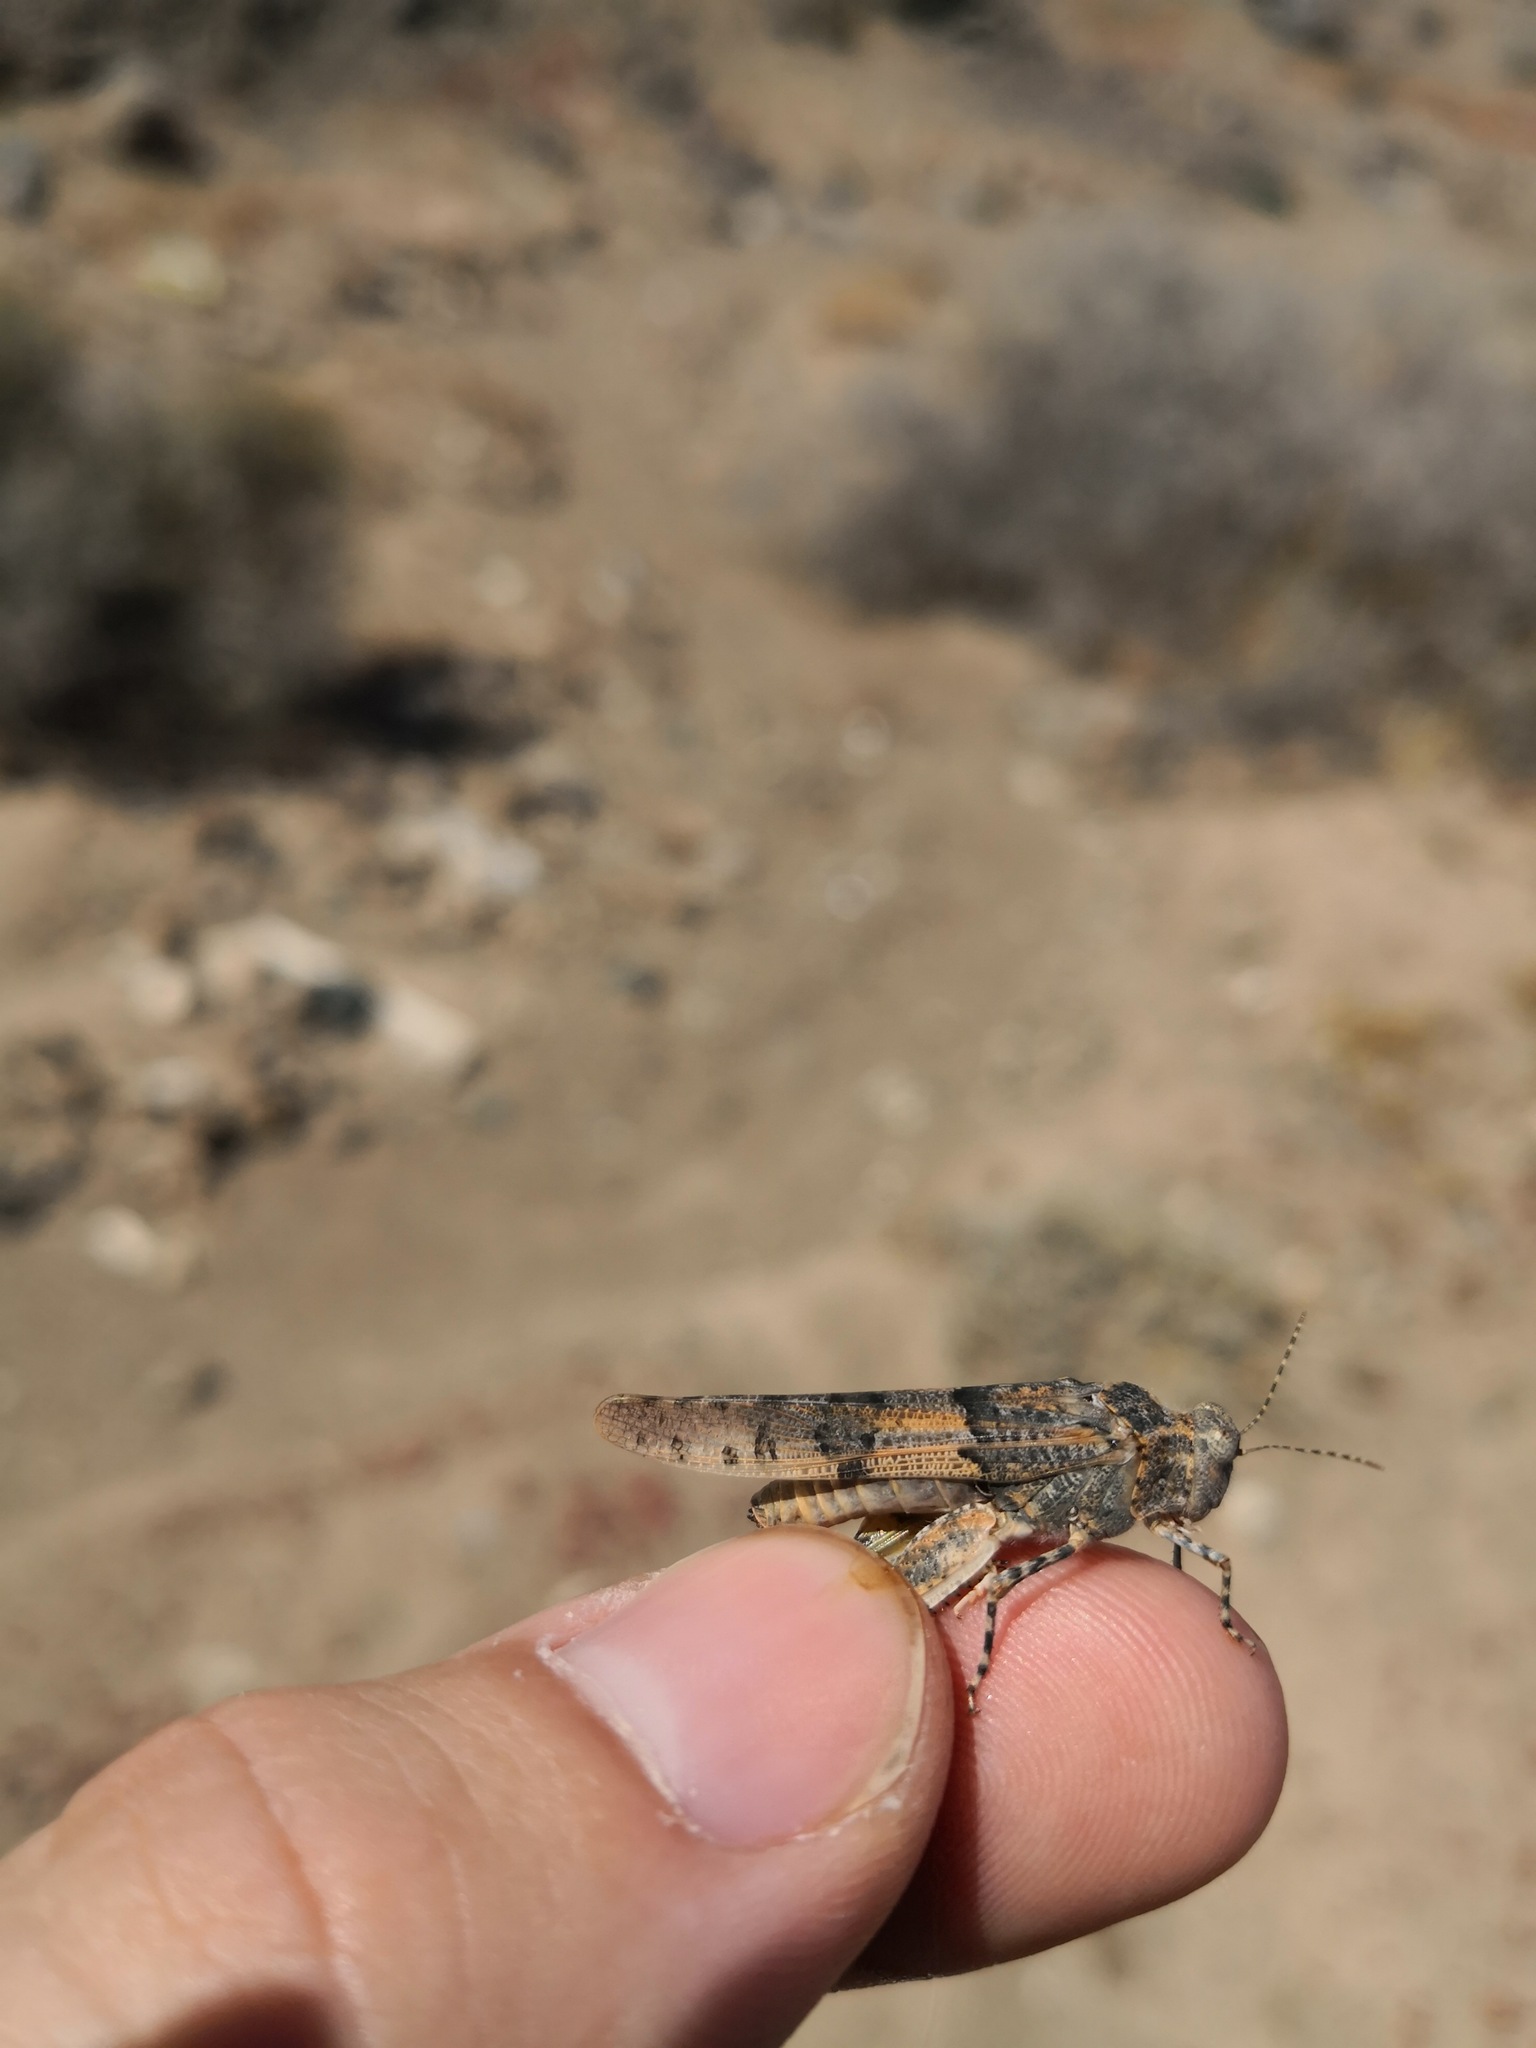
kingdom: Animalia
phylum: Arthropoda
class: Insecta
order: Orthoptera
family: Acrididae
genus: Sphingonotus
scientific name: Sphingonotus sublaevis
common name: Red sand grasshopper
